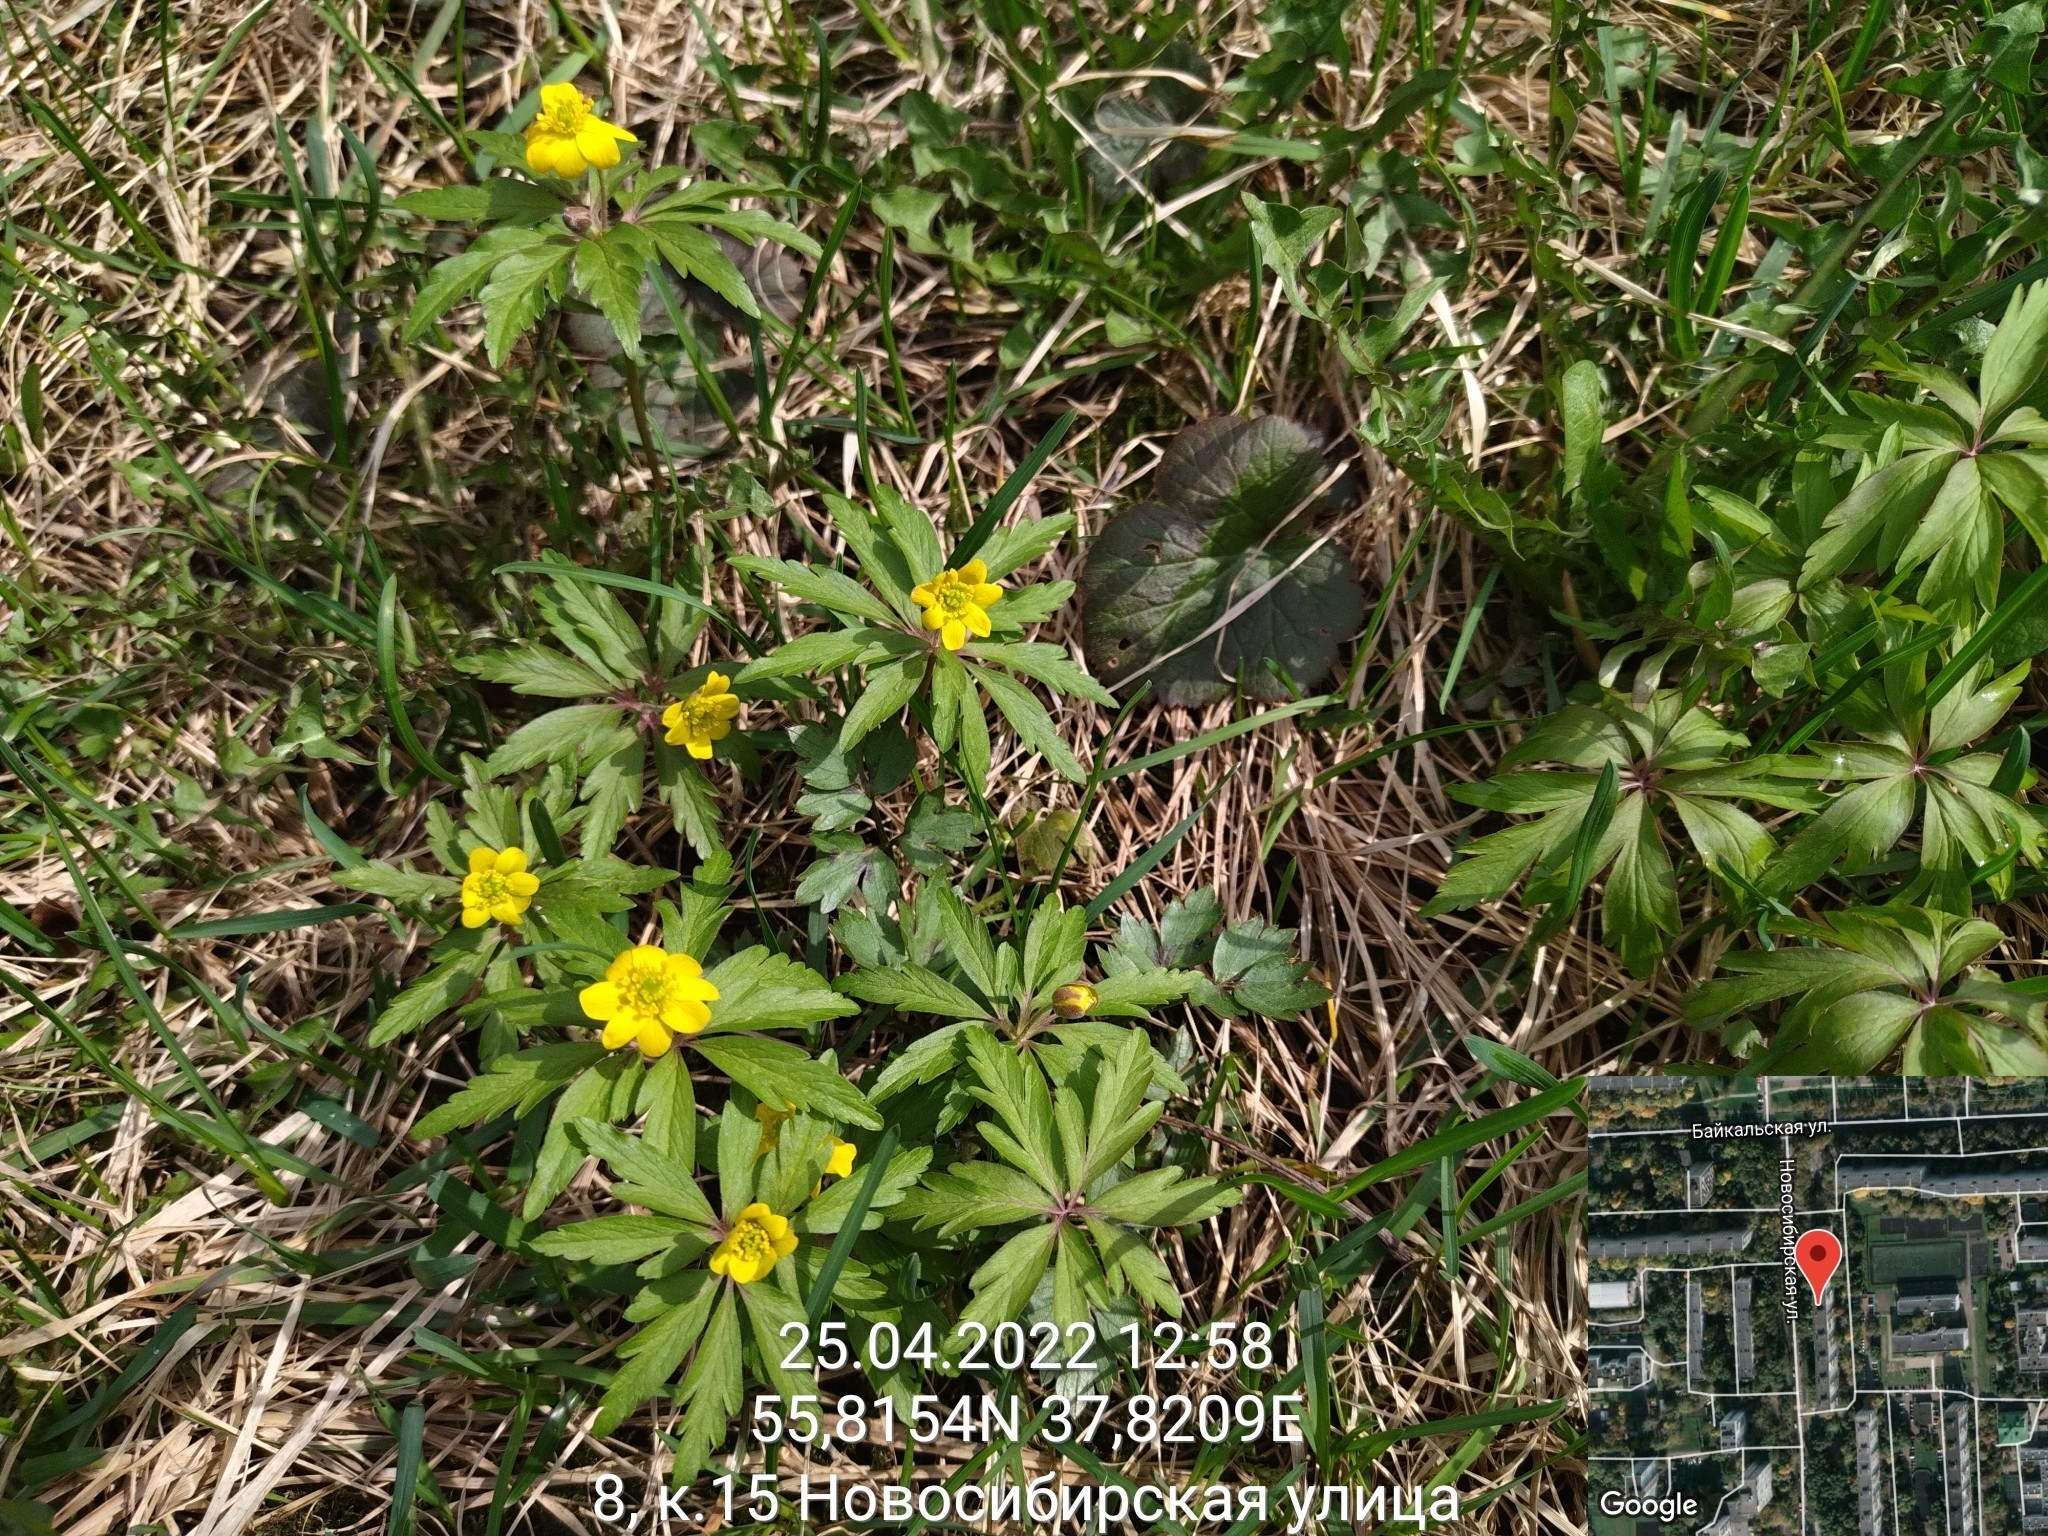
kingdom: Plantae
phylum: Tracheophyta
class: Magnoliopsida
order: Ranunculales
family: Ranunculaceae
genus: Anemone
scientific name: Anemone ranunculoides
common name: Yellow anemone
